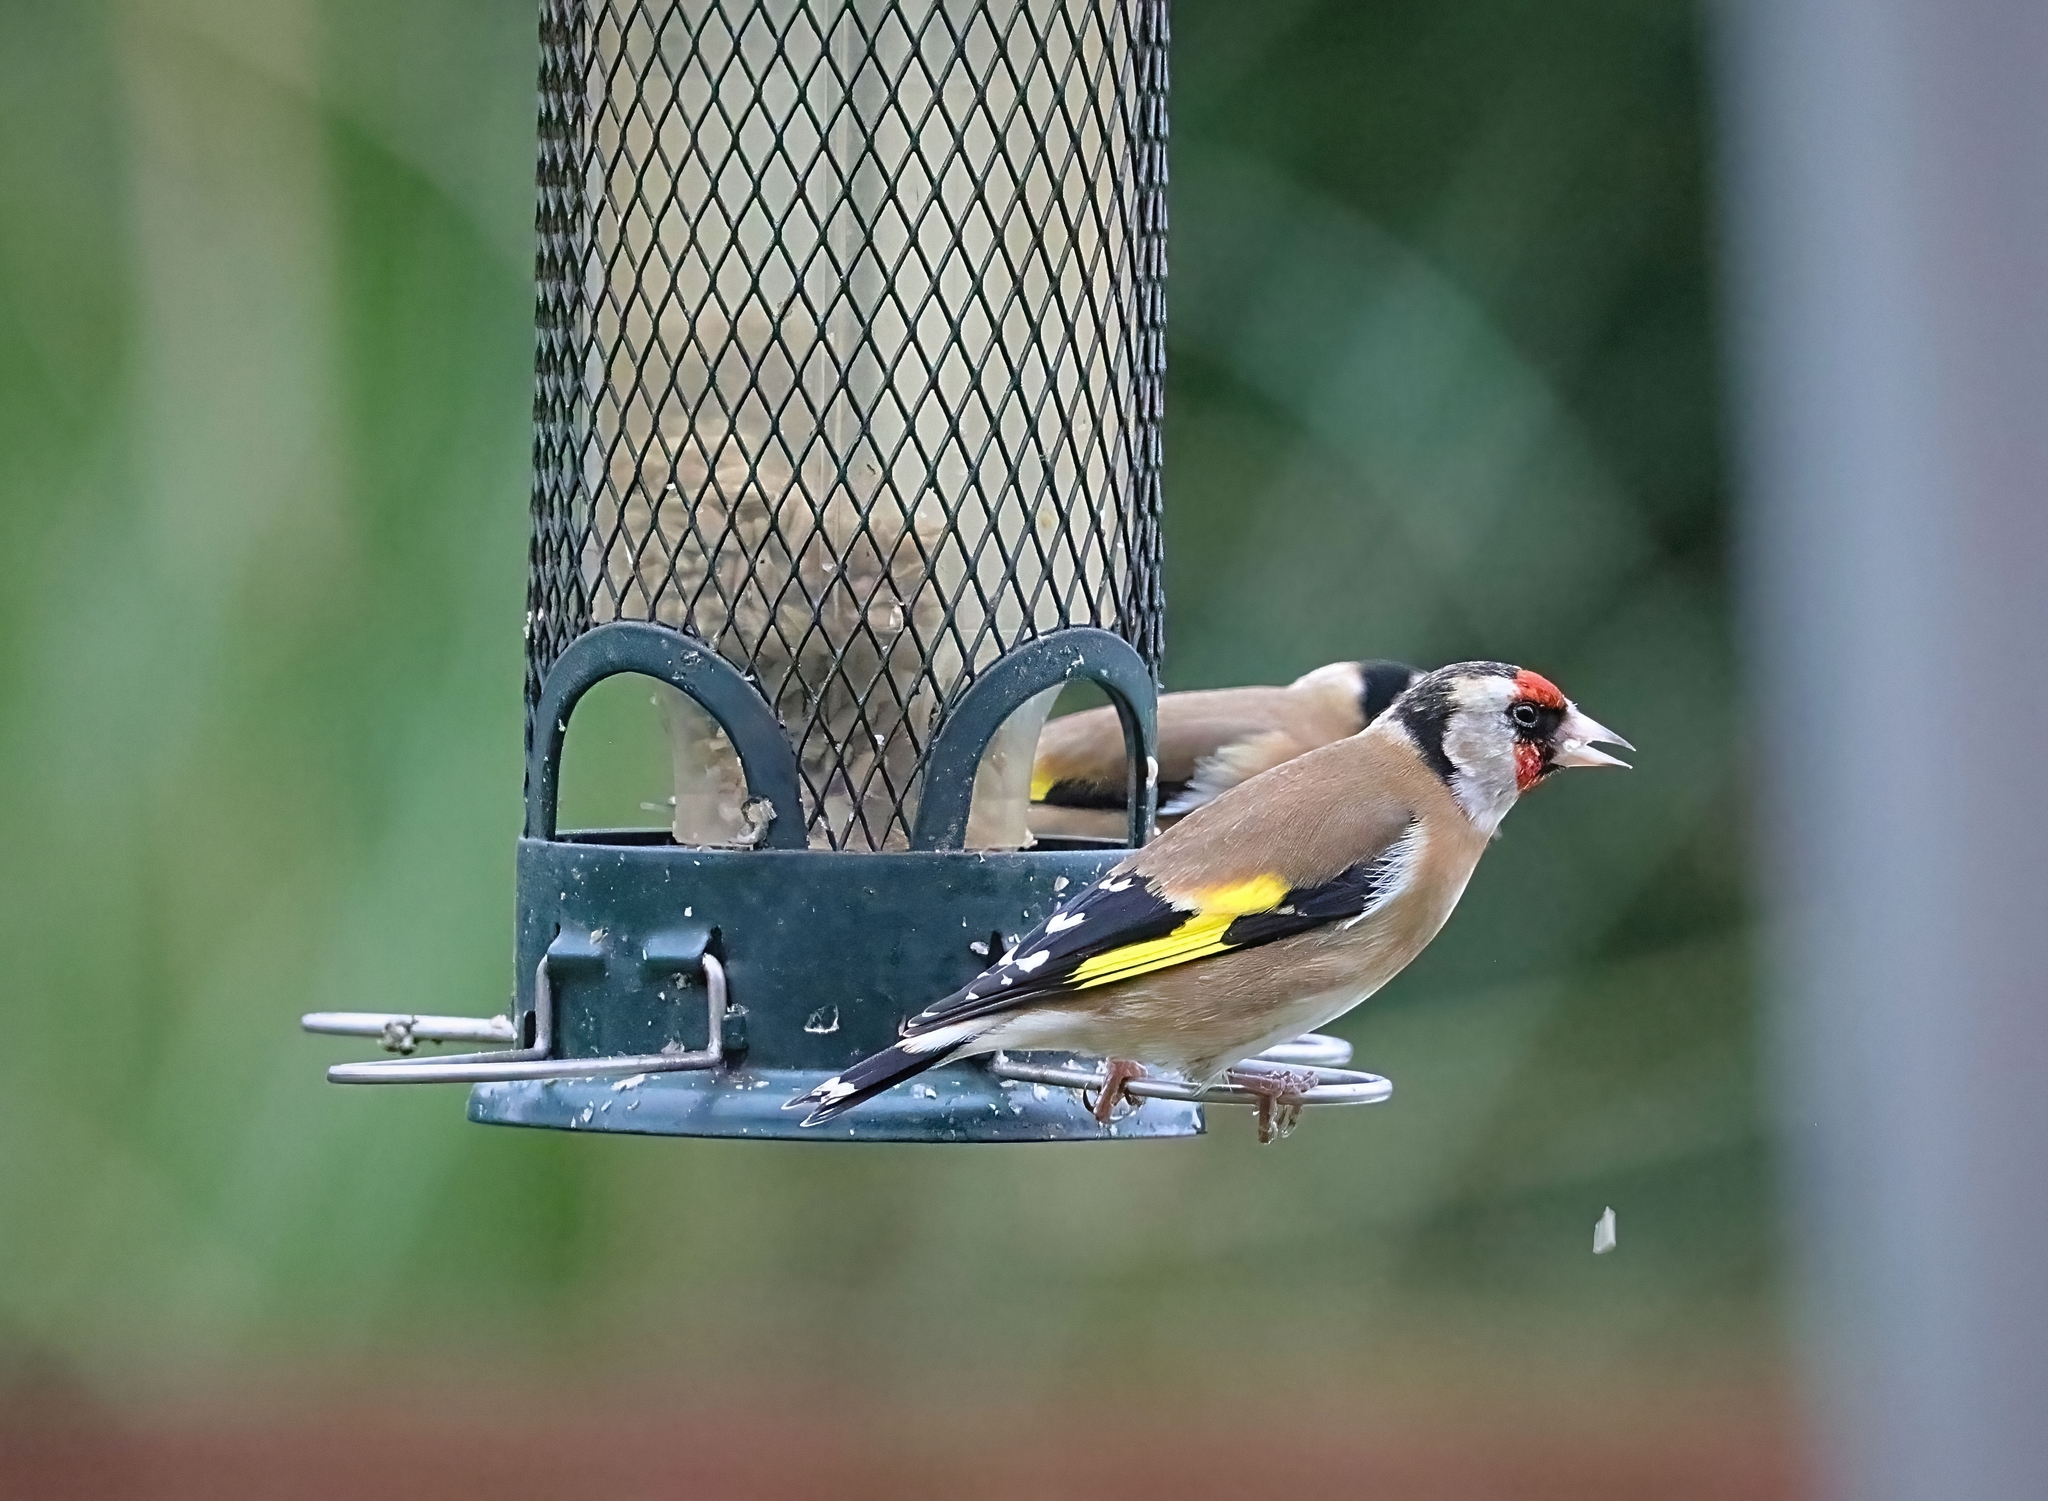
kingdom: Animalia
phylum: Chordata
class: Aves
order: Passeriformes
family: Fringillidae
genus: Carduelis
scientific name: Carduelis carduelis
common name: European goldfinch
